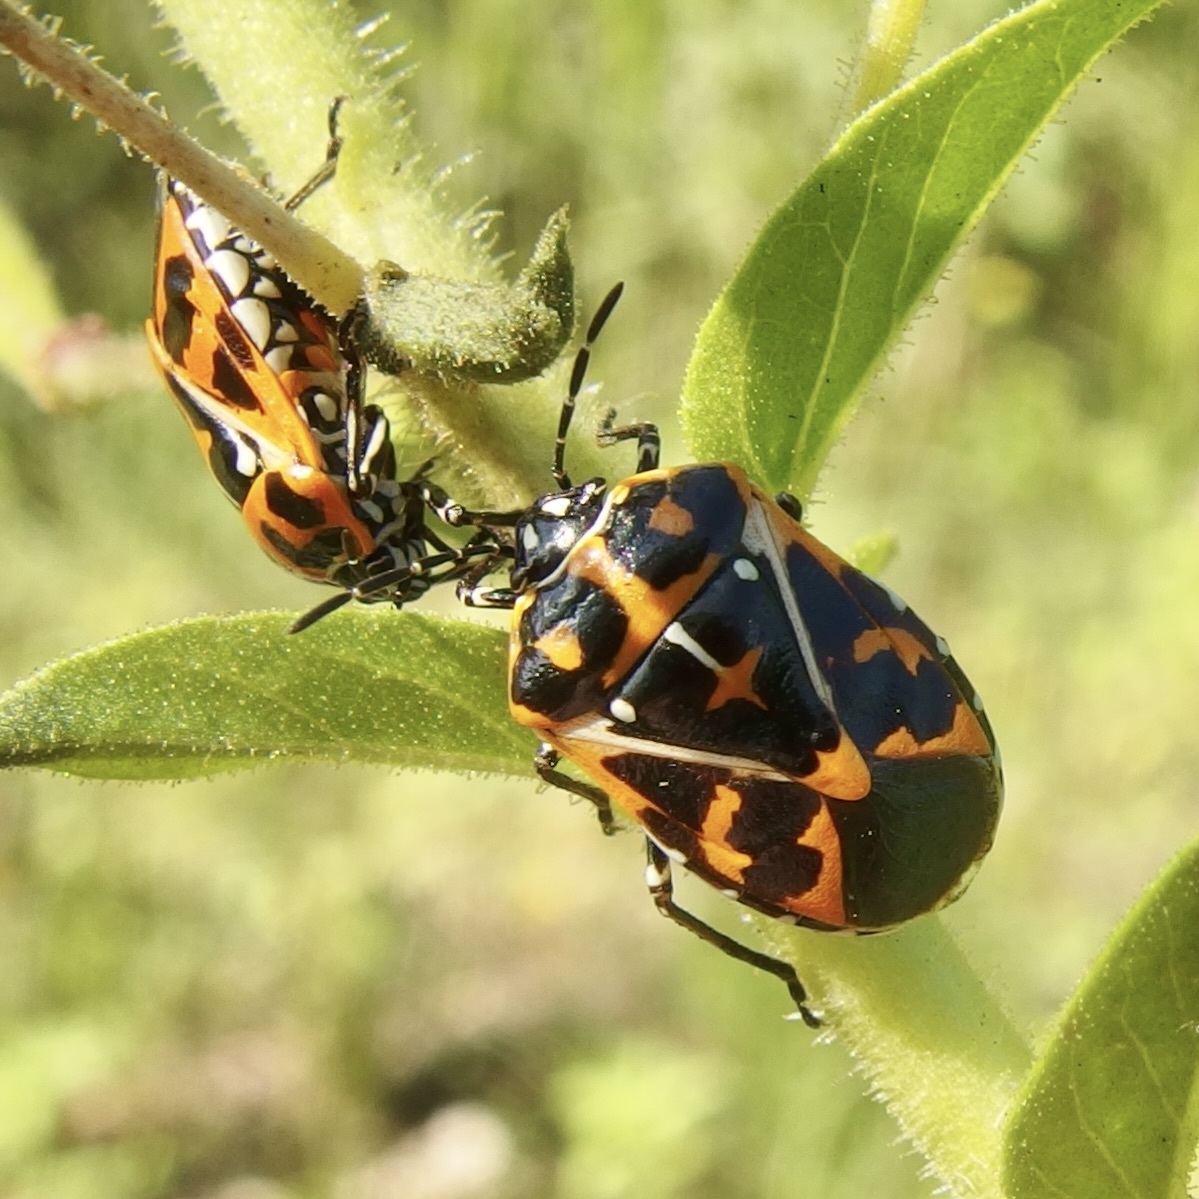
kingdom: Animalia
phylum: Arthropoda
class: Insecta
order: Hemiptera
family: Pentatomidae
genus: Murgantia
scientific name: Murgantia histrionica
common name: Harlequin bug
